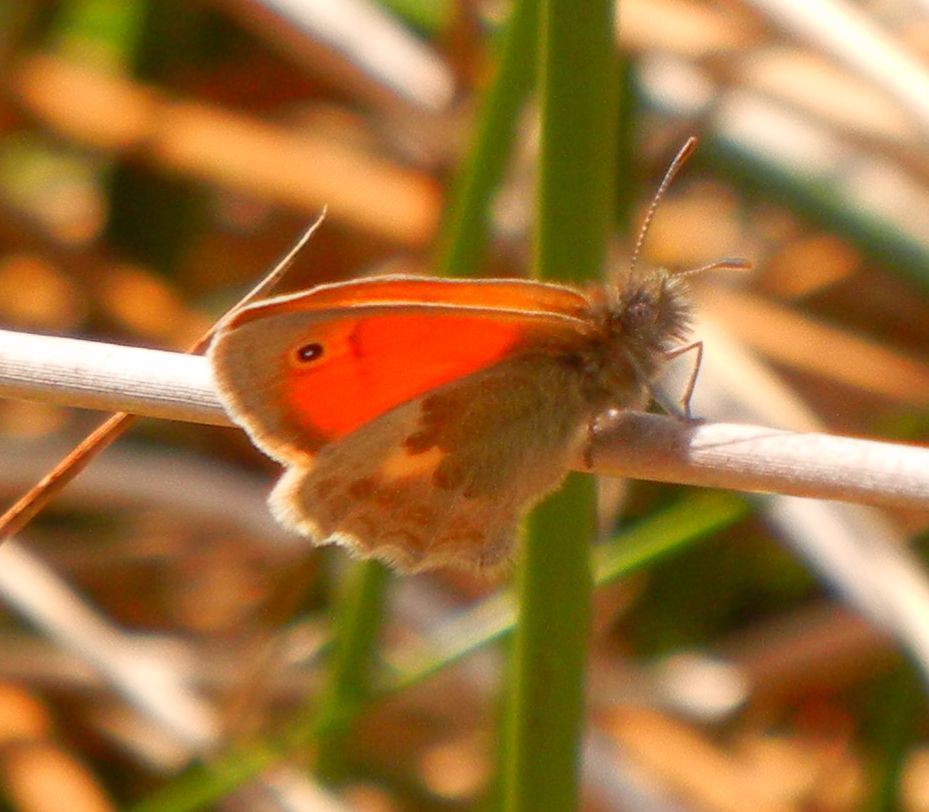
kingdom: Animalia
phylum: Arthropoda
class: Insecta
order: Lepidoptera
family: Nymphalidae
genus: Coenonympha
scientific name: Coenonympha pamphilus
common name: Small heath
